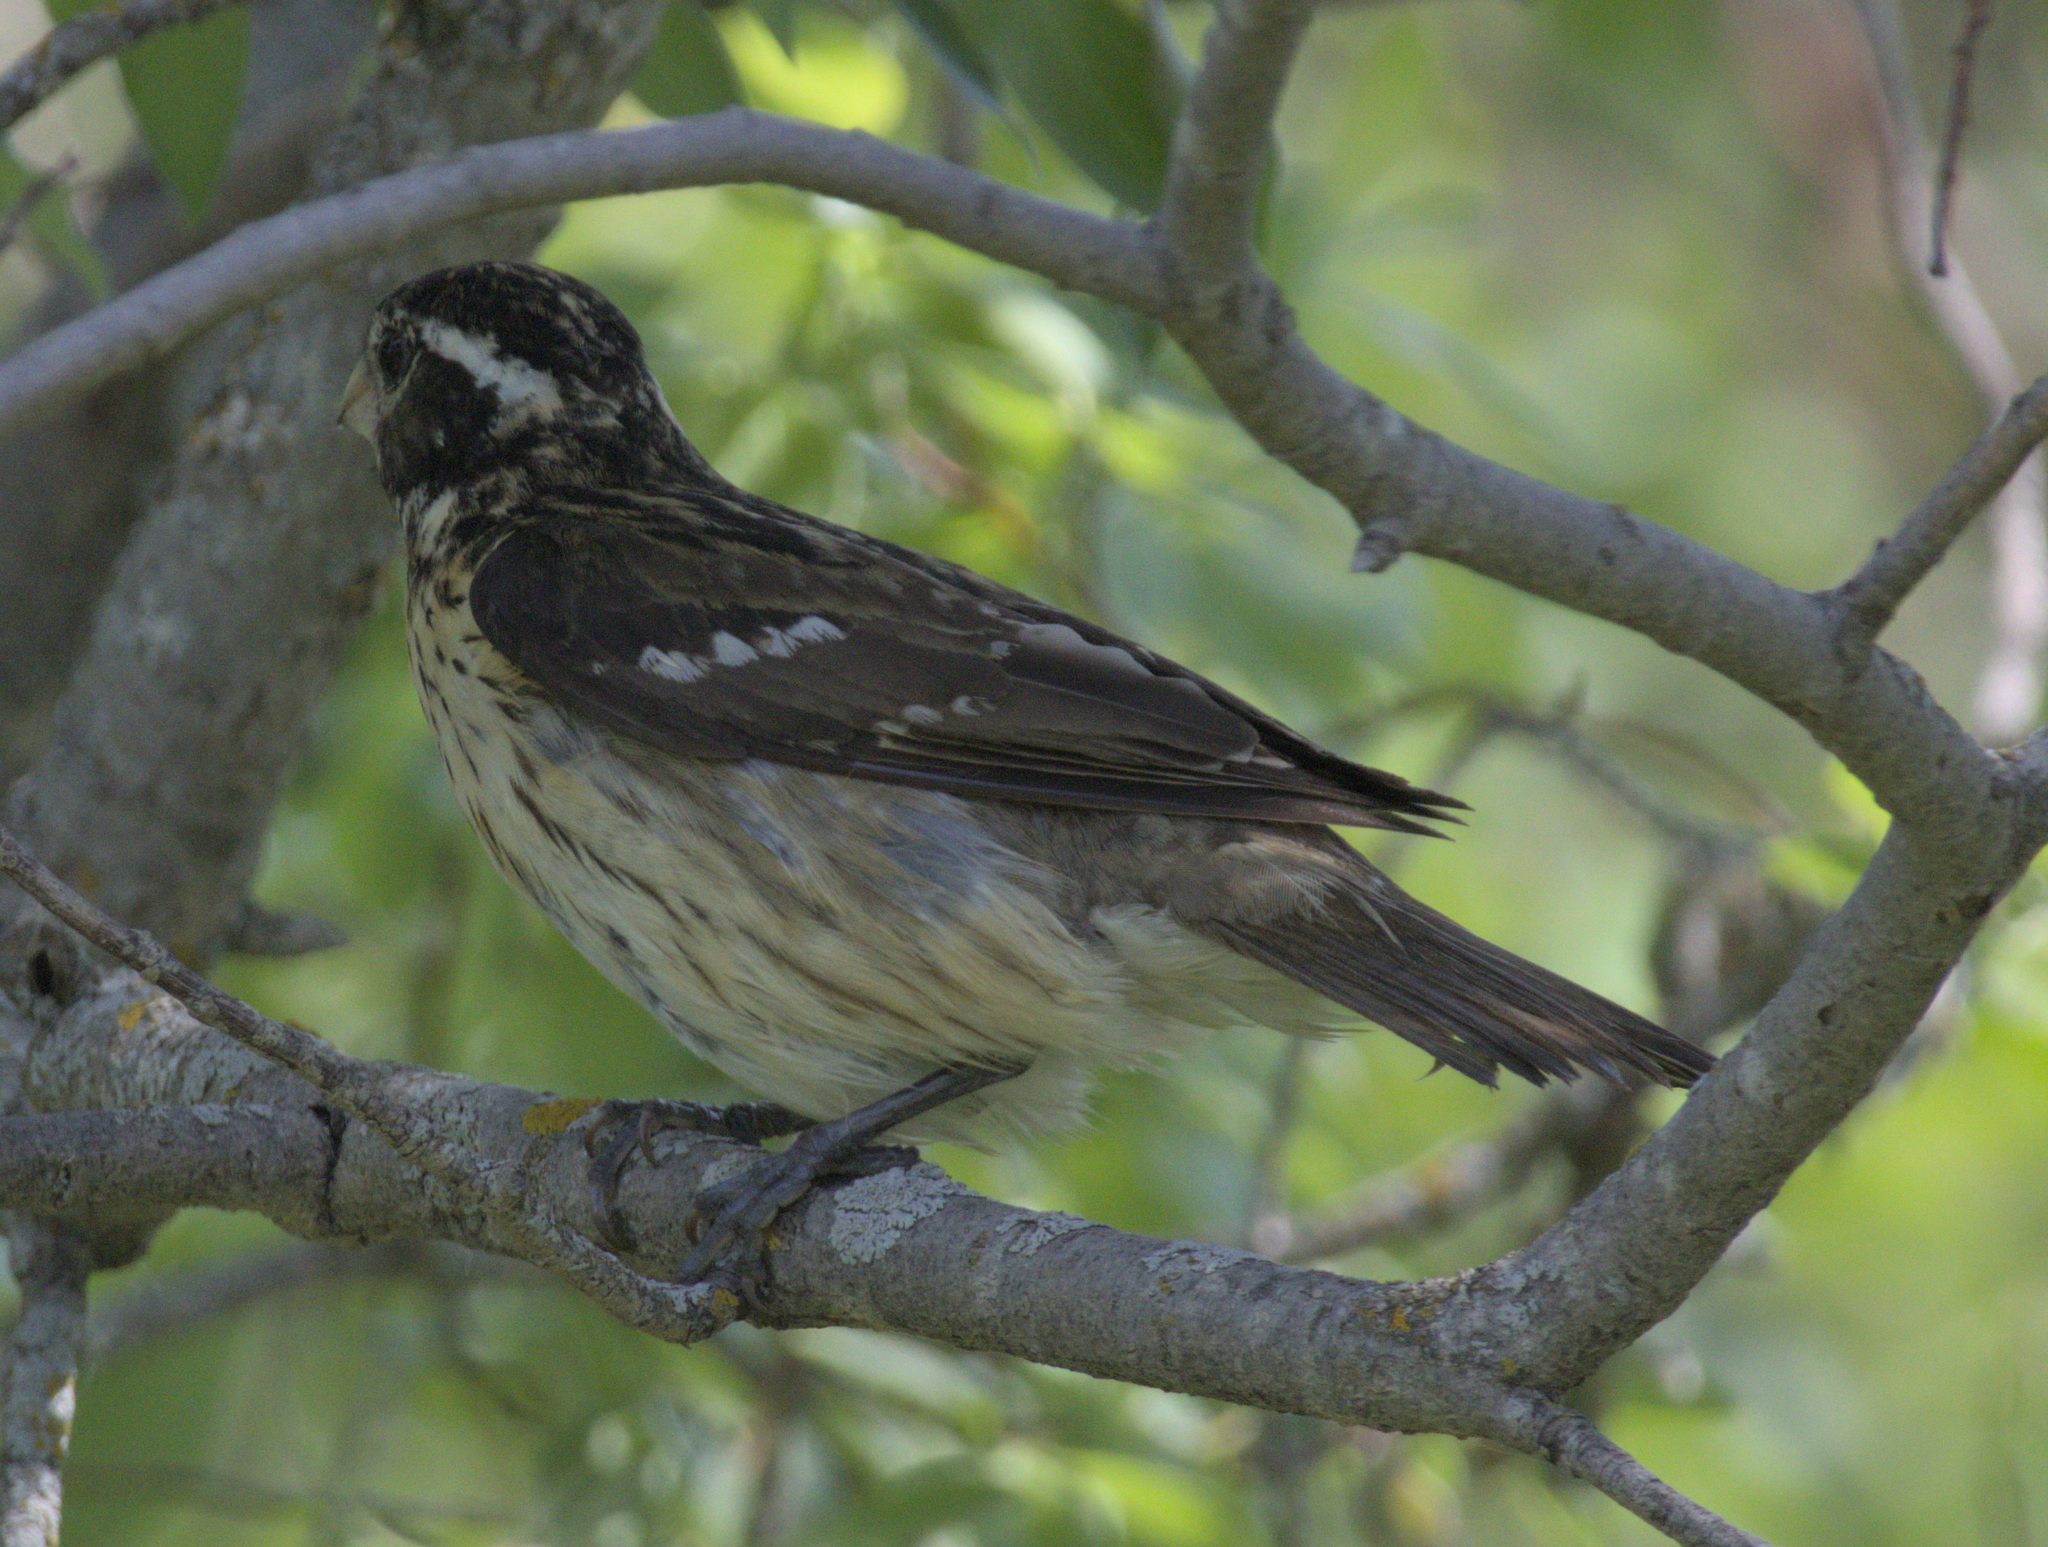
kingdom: Animalia
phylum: Chordata
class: Aves
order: Passeriformes
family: Cardinalidae
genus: Pheucticus
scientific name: Pheucticus ludovicianus
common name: Rose-breasted grosbeak
